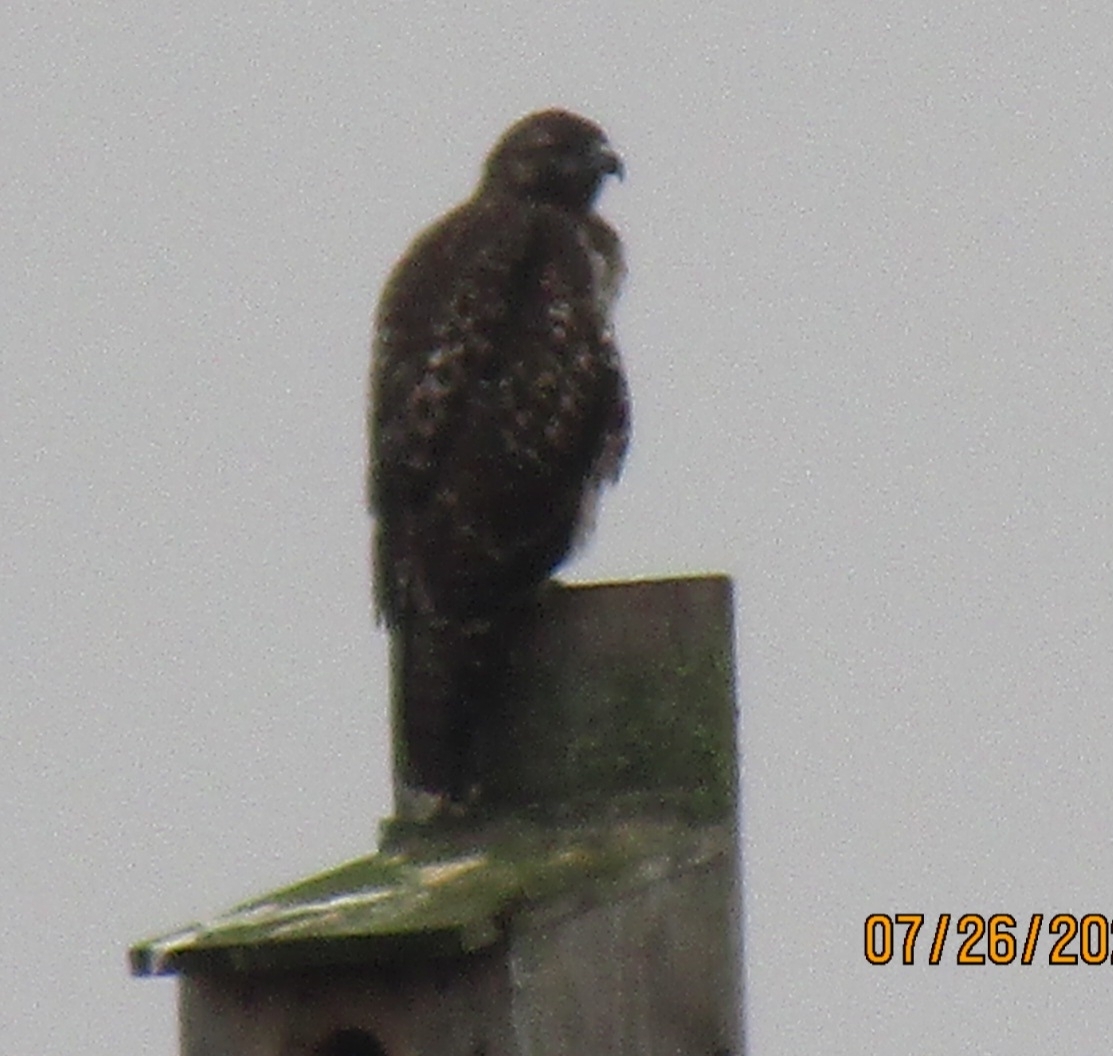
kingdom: Animalia
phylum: Chordata
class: Aves
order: Accipitriformes
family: Accipitridae
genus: Buteo
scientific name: Buteo jamaicensis
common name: Red-tailed hawk
